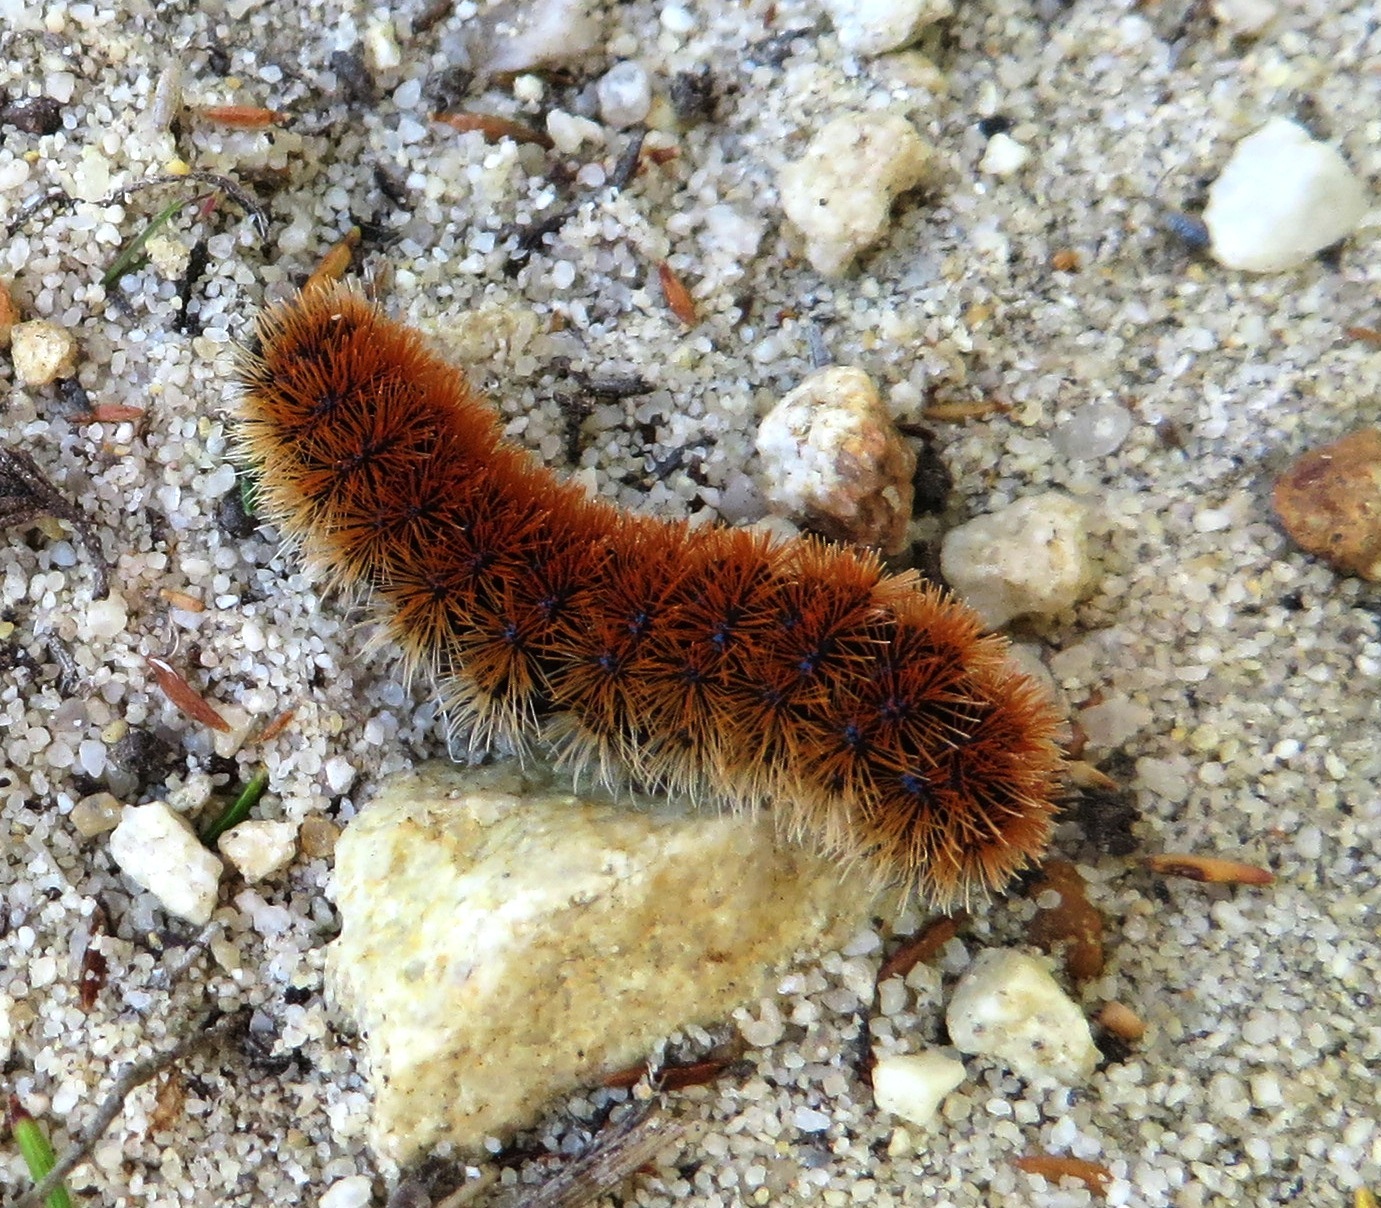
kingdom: Animalia
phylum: Arthropoda
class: Insecta
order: Lepidoptera
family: Erebidae
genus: Eutomis
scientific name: Eutomis minceus
